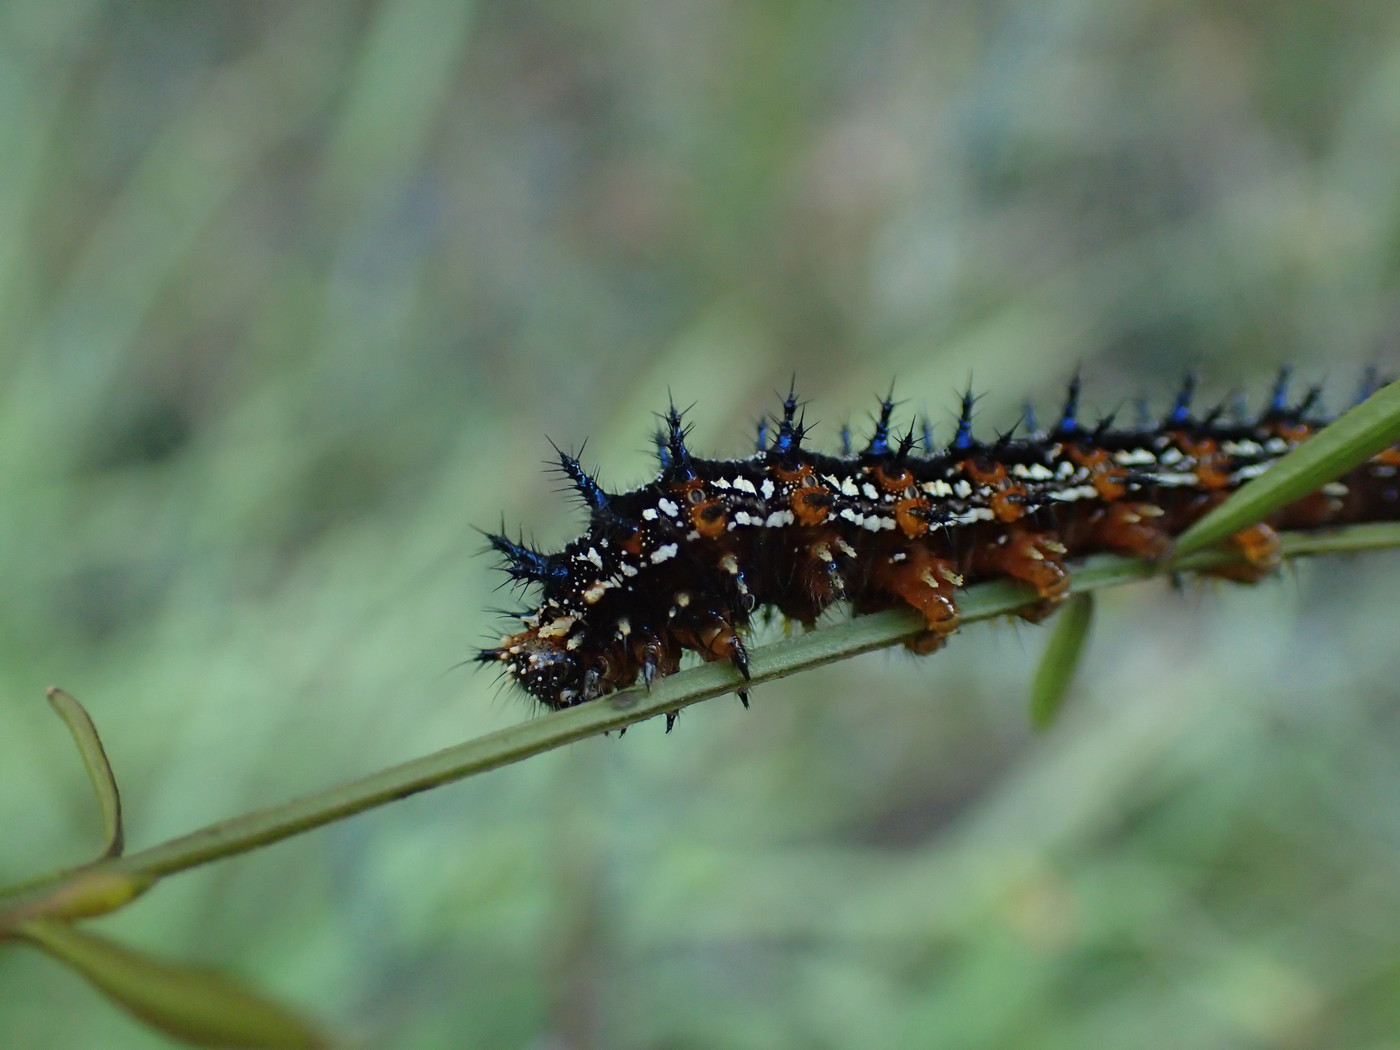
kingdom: Animalia
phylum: Arthropoda
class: Insecta
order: Lepidoptera
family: Nymphalidae
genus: Junonia
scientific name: Junonia coenia
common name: Common buckeye
